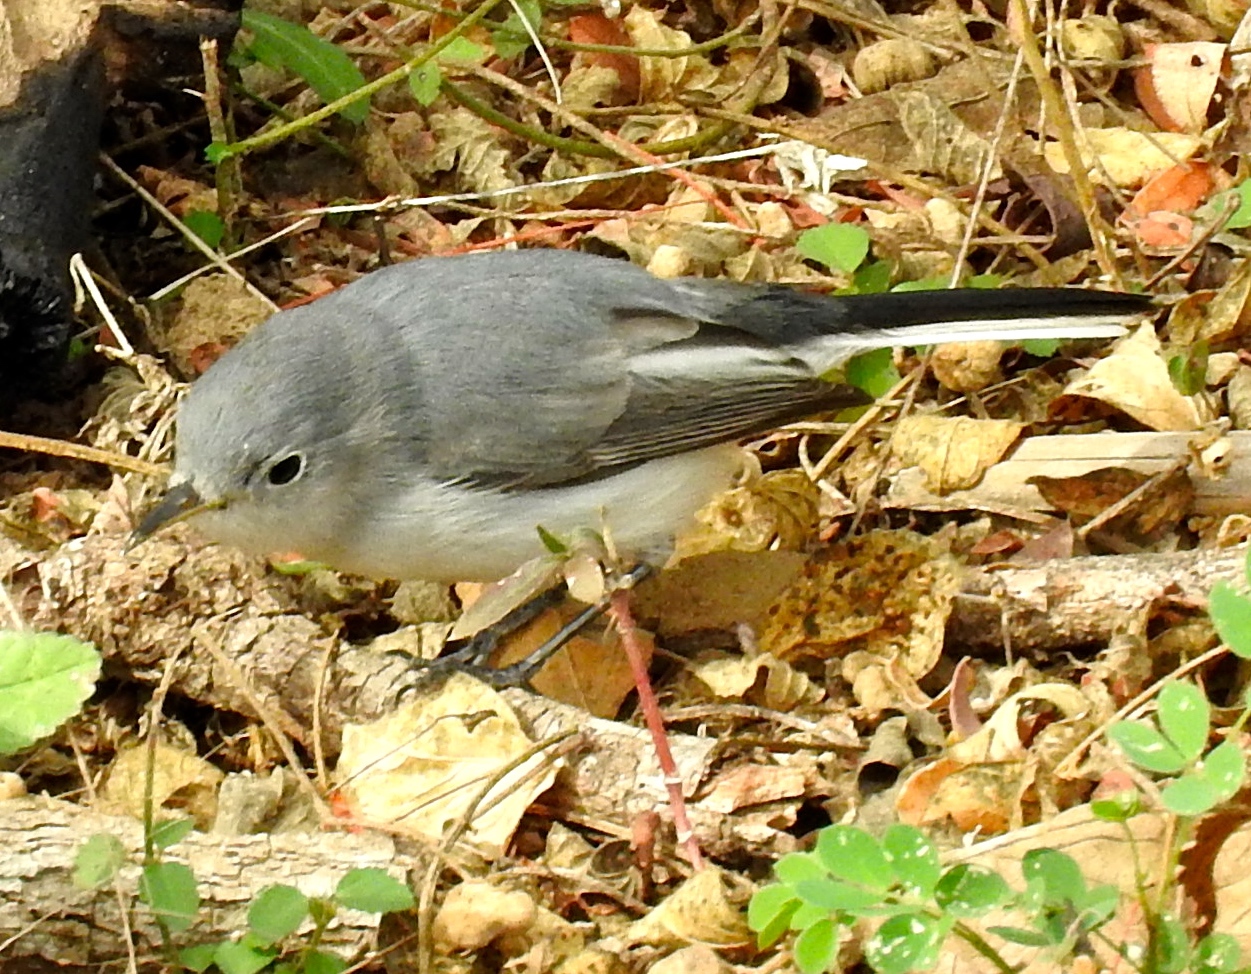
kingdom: Animalia
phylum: Chordata
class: Aves
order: Passeriformes
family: Polioptilidae
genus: Polioptila
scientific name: Polioptila caerulea
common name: Blue-gray gnatcatcher
